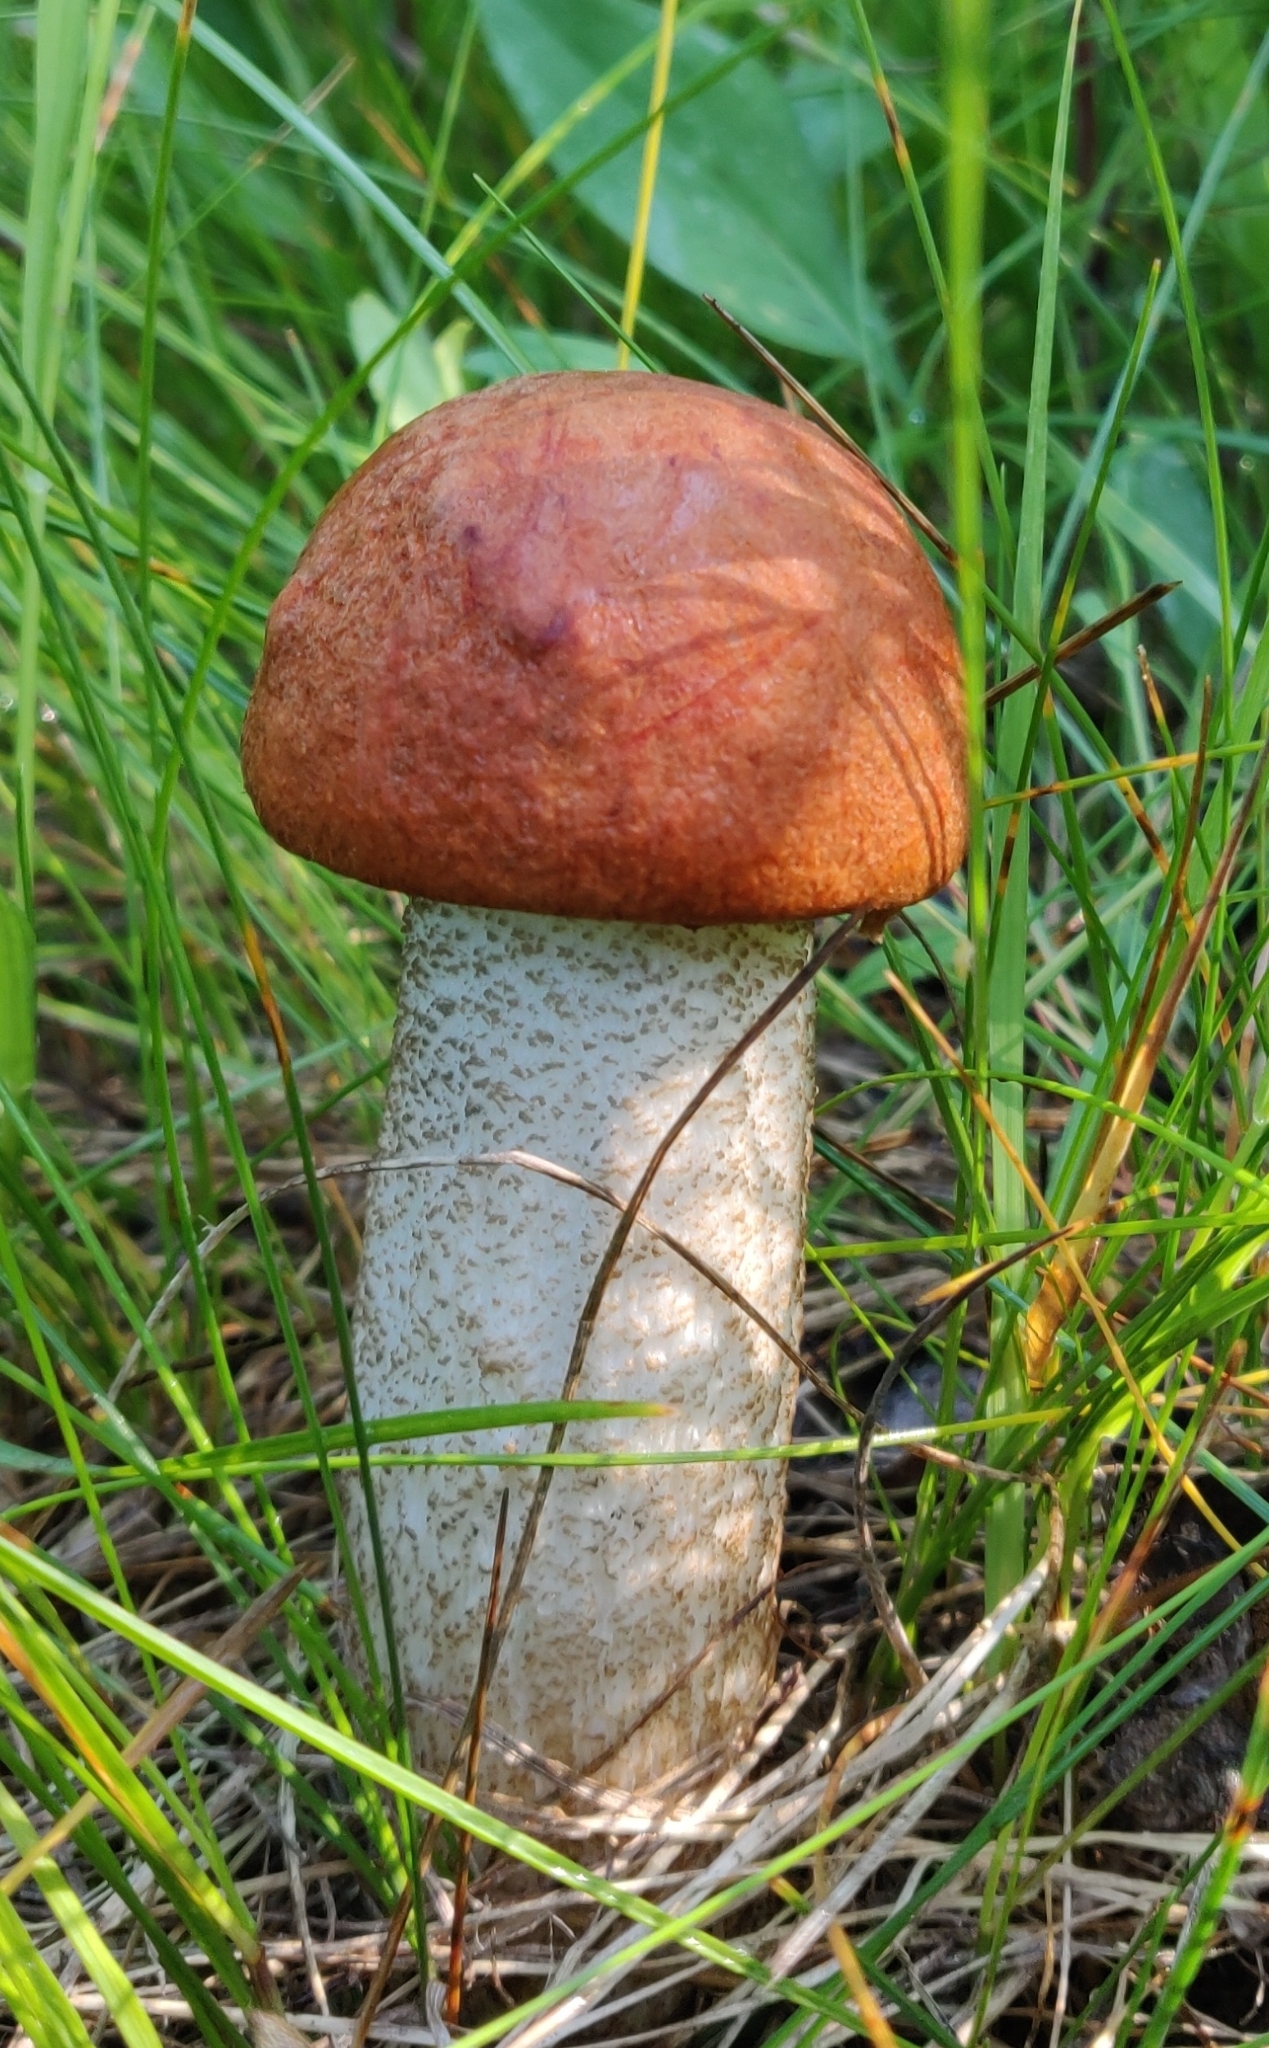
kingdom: Fungi
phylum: Basidiomycota
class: Agaricomycetes
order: Boletales
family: Boletaceae
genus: Leccinum
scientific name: Leccinum insigne
